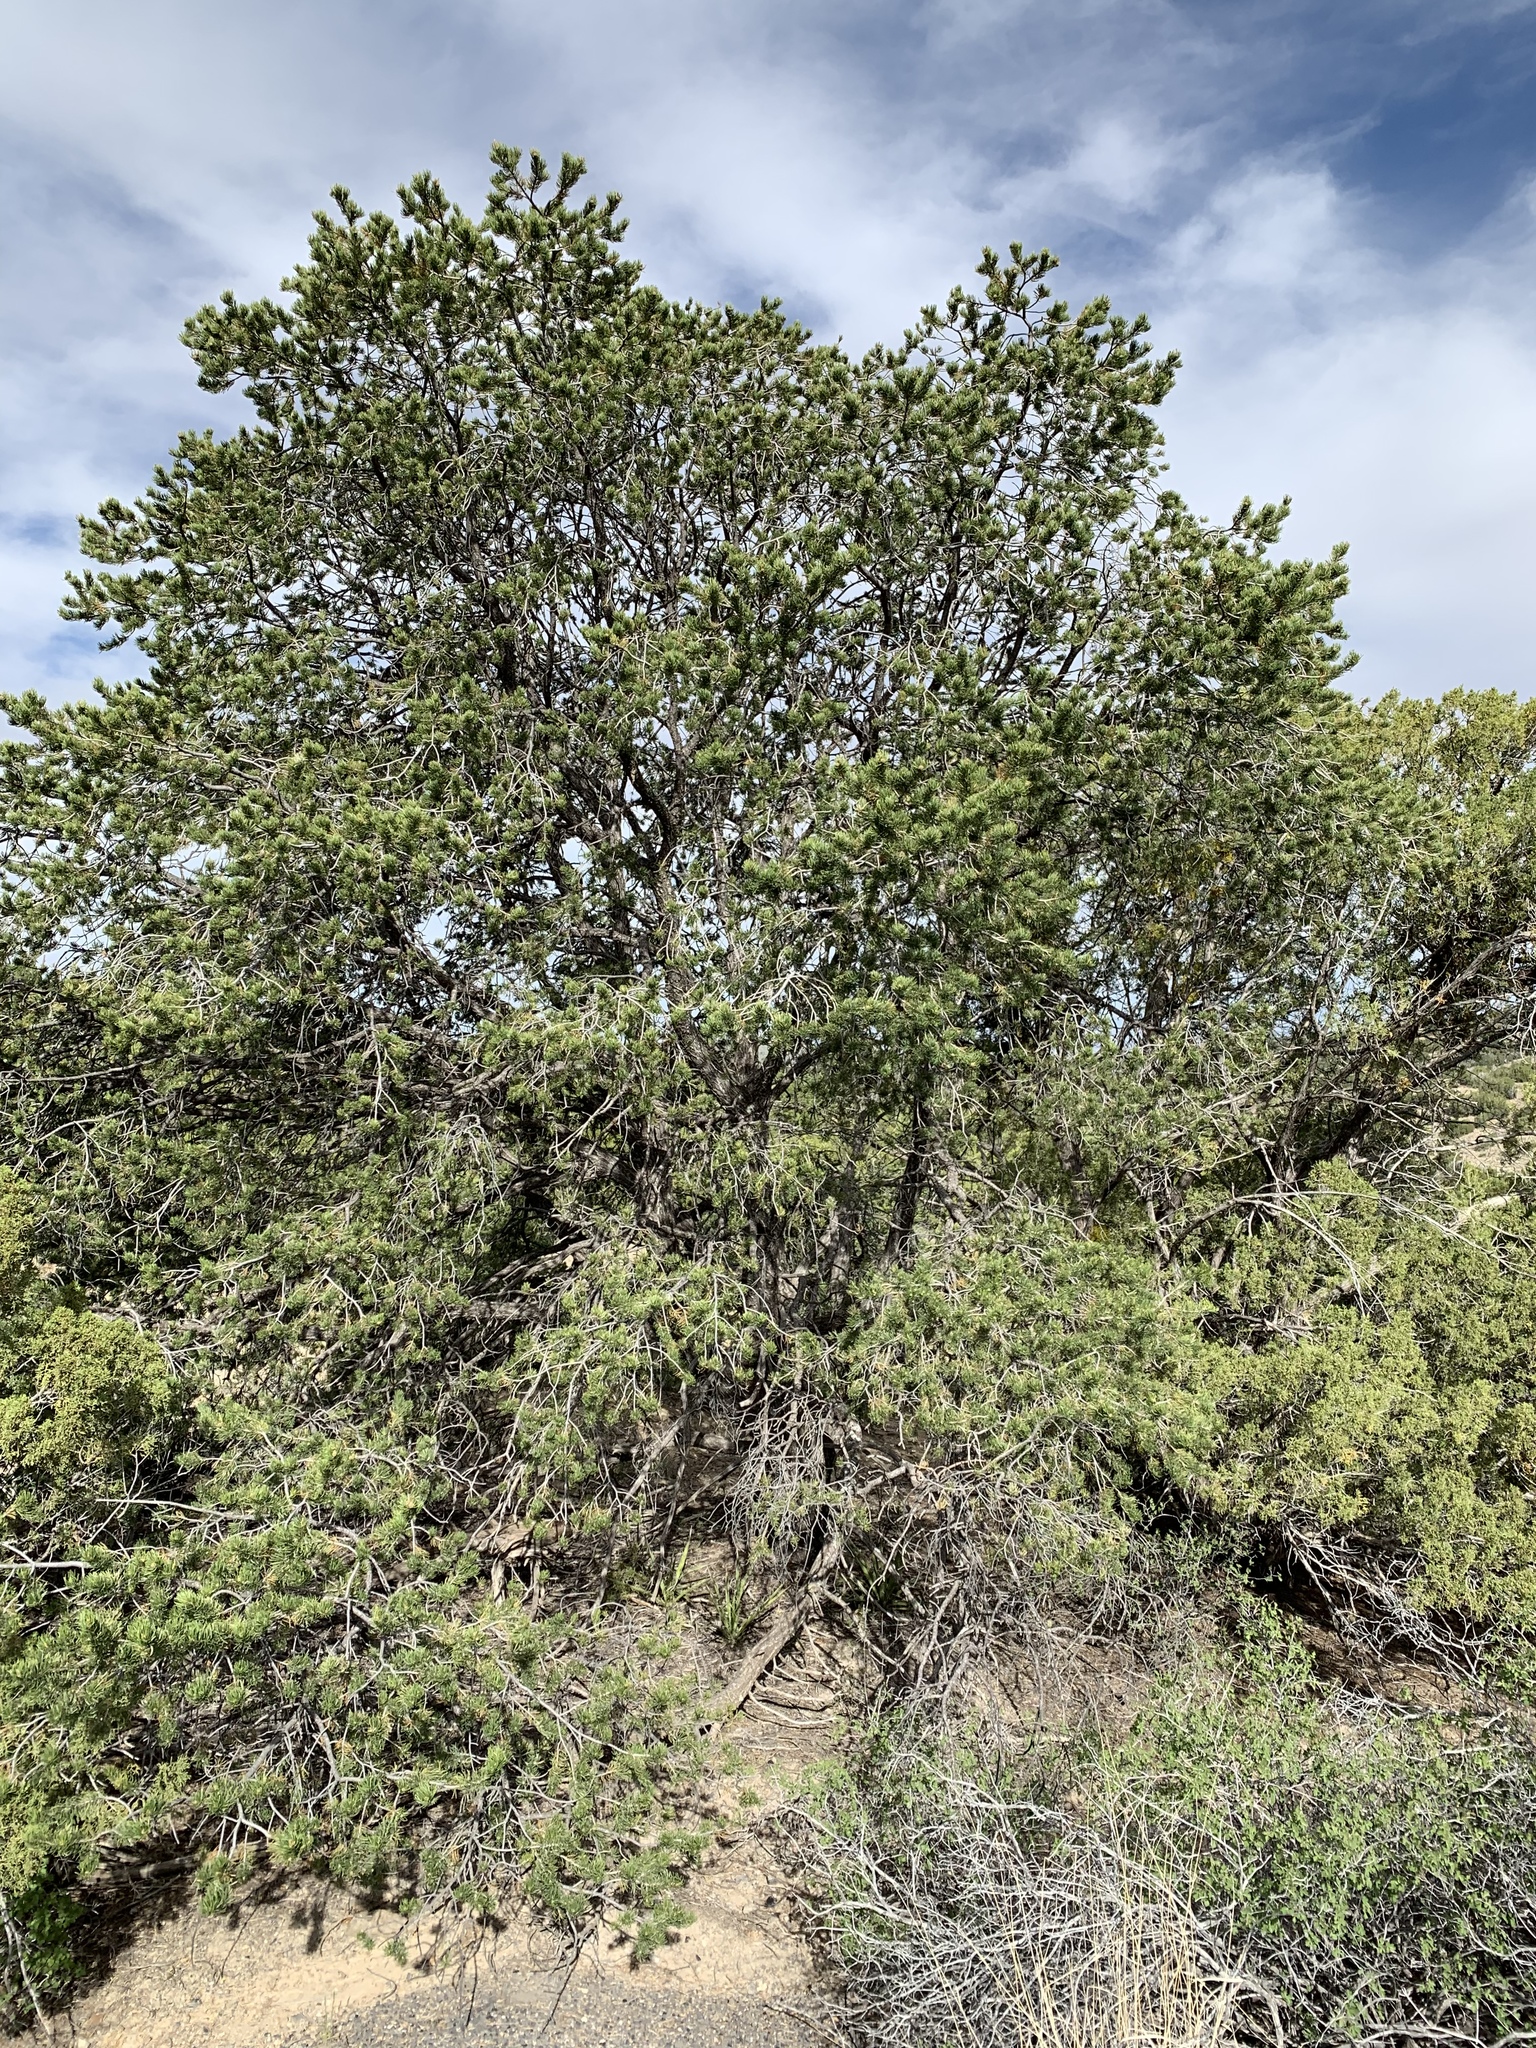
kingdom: Plantae
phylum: Tracheophyta
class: Pinopsida
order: Pinales
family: Pinaceae
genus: Pinus
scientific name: Pinus edulis
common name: Colorado pinyon
